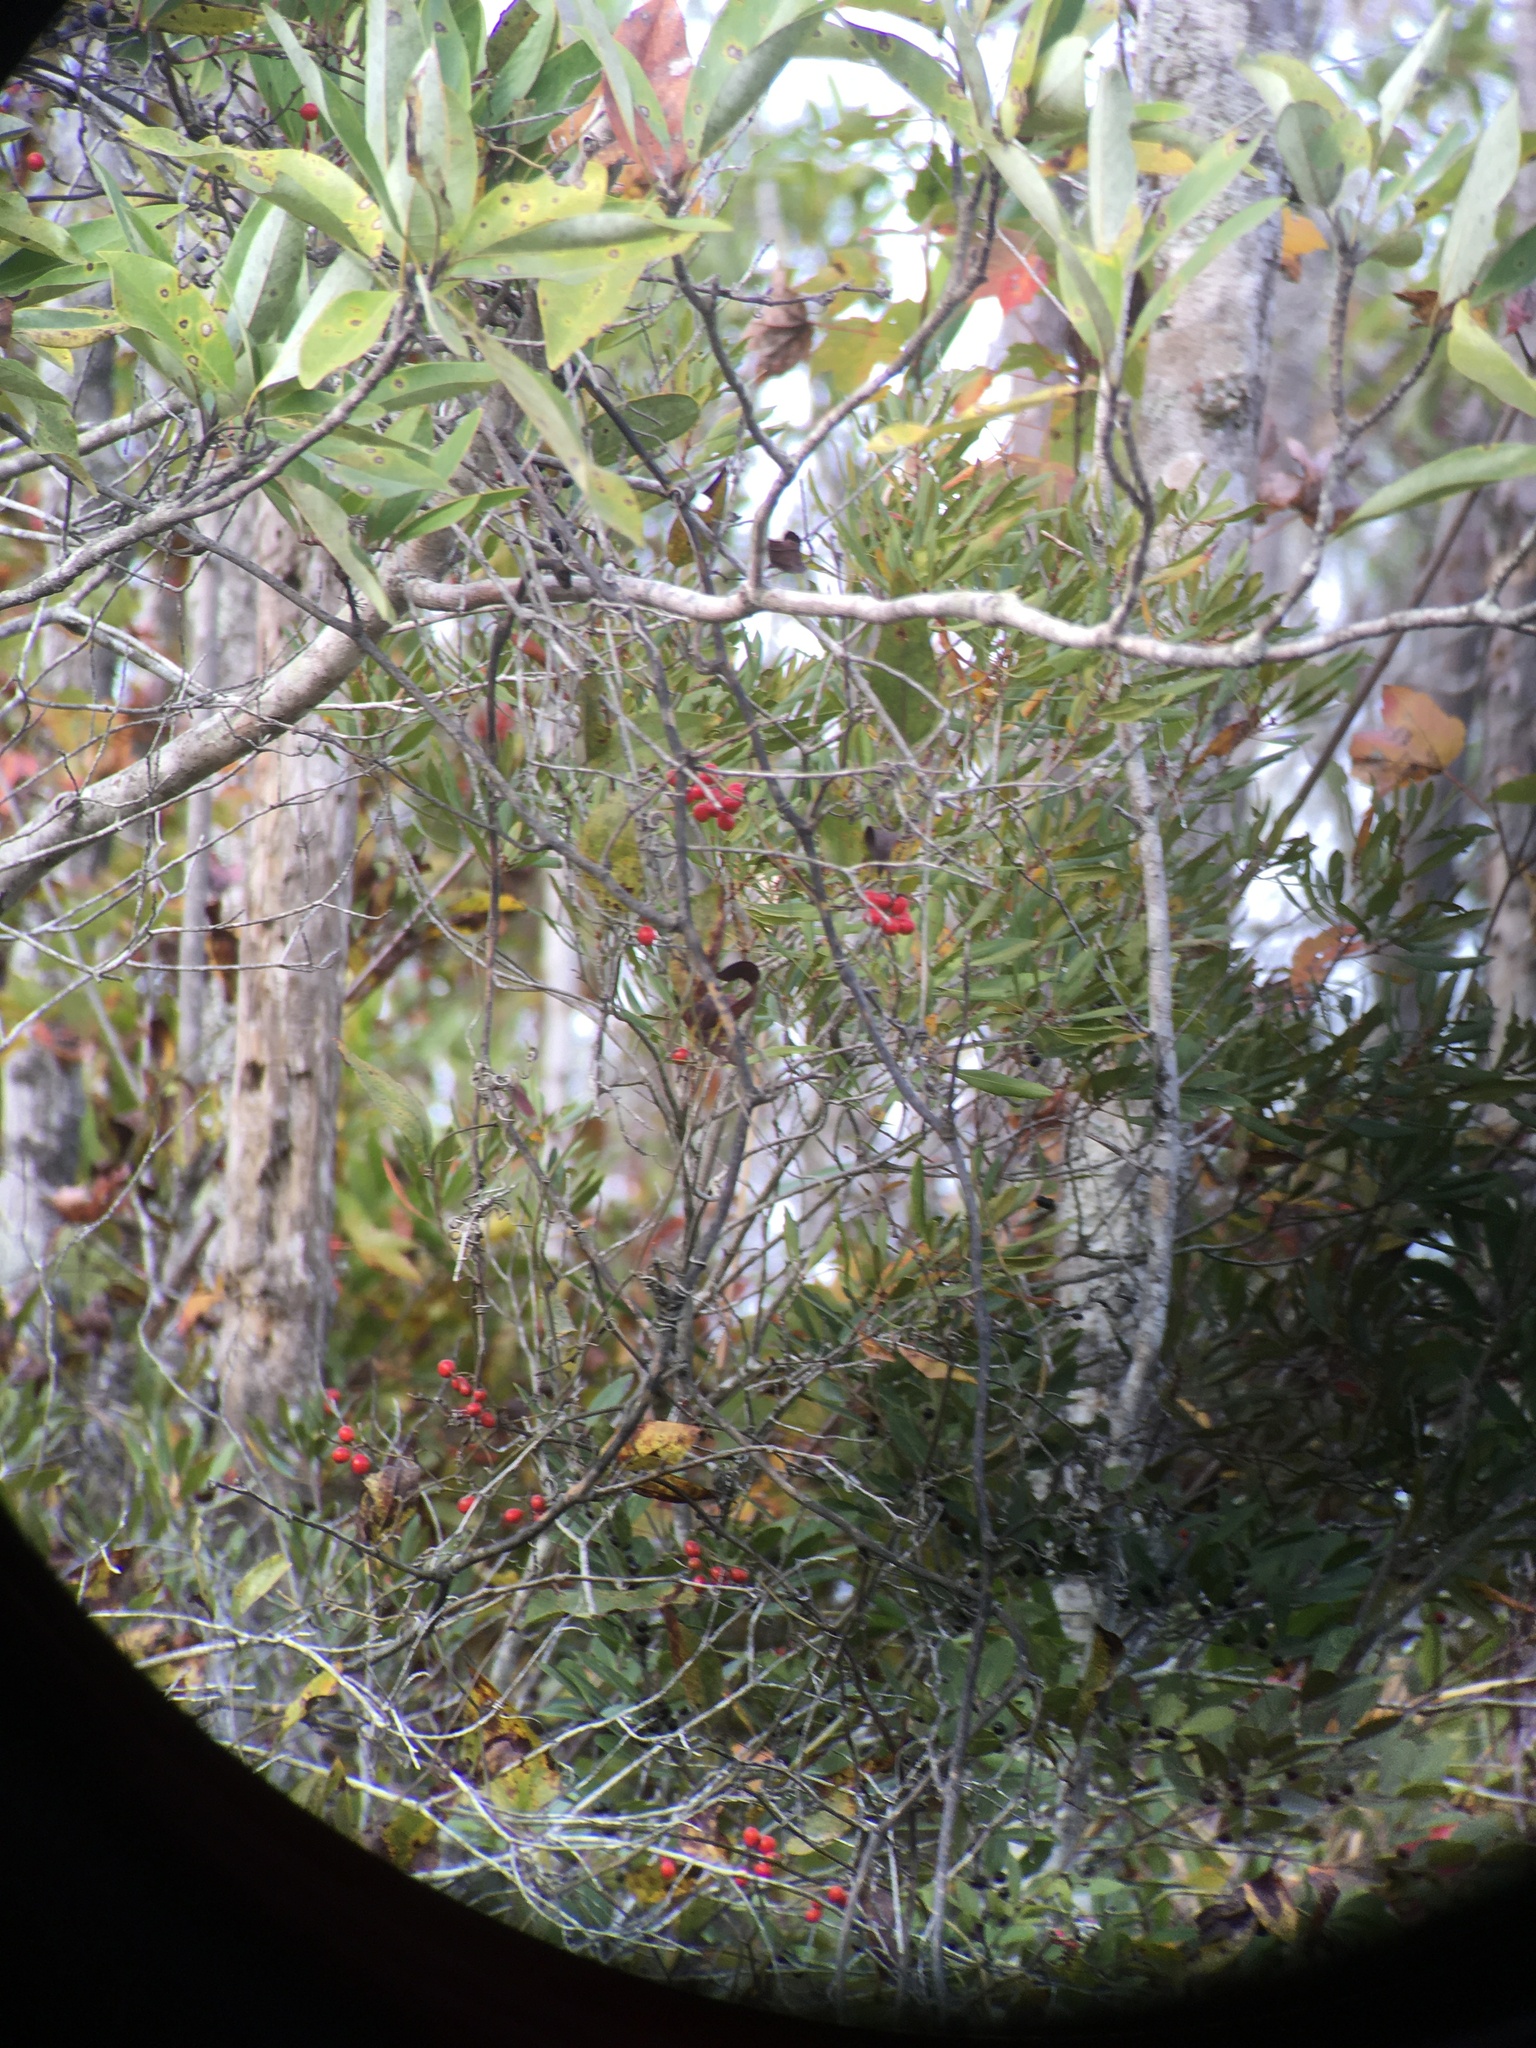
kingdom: Plantae
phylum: Tracheophyta
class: Liliopsida
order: Liliales
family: Smilacaceae
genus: Smilax
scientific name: Smilax walteri
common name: Coral greenbrier
